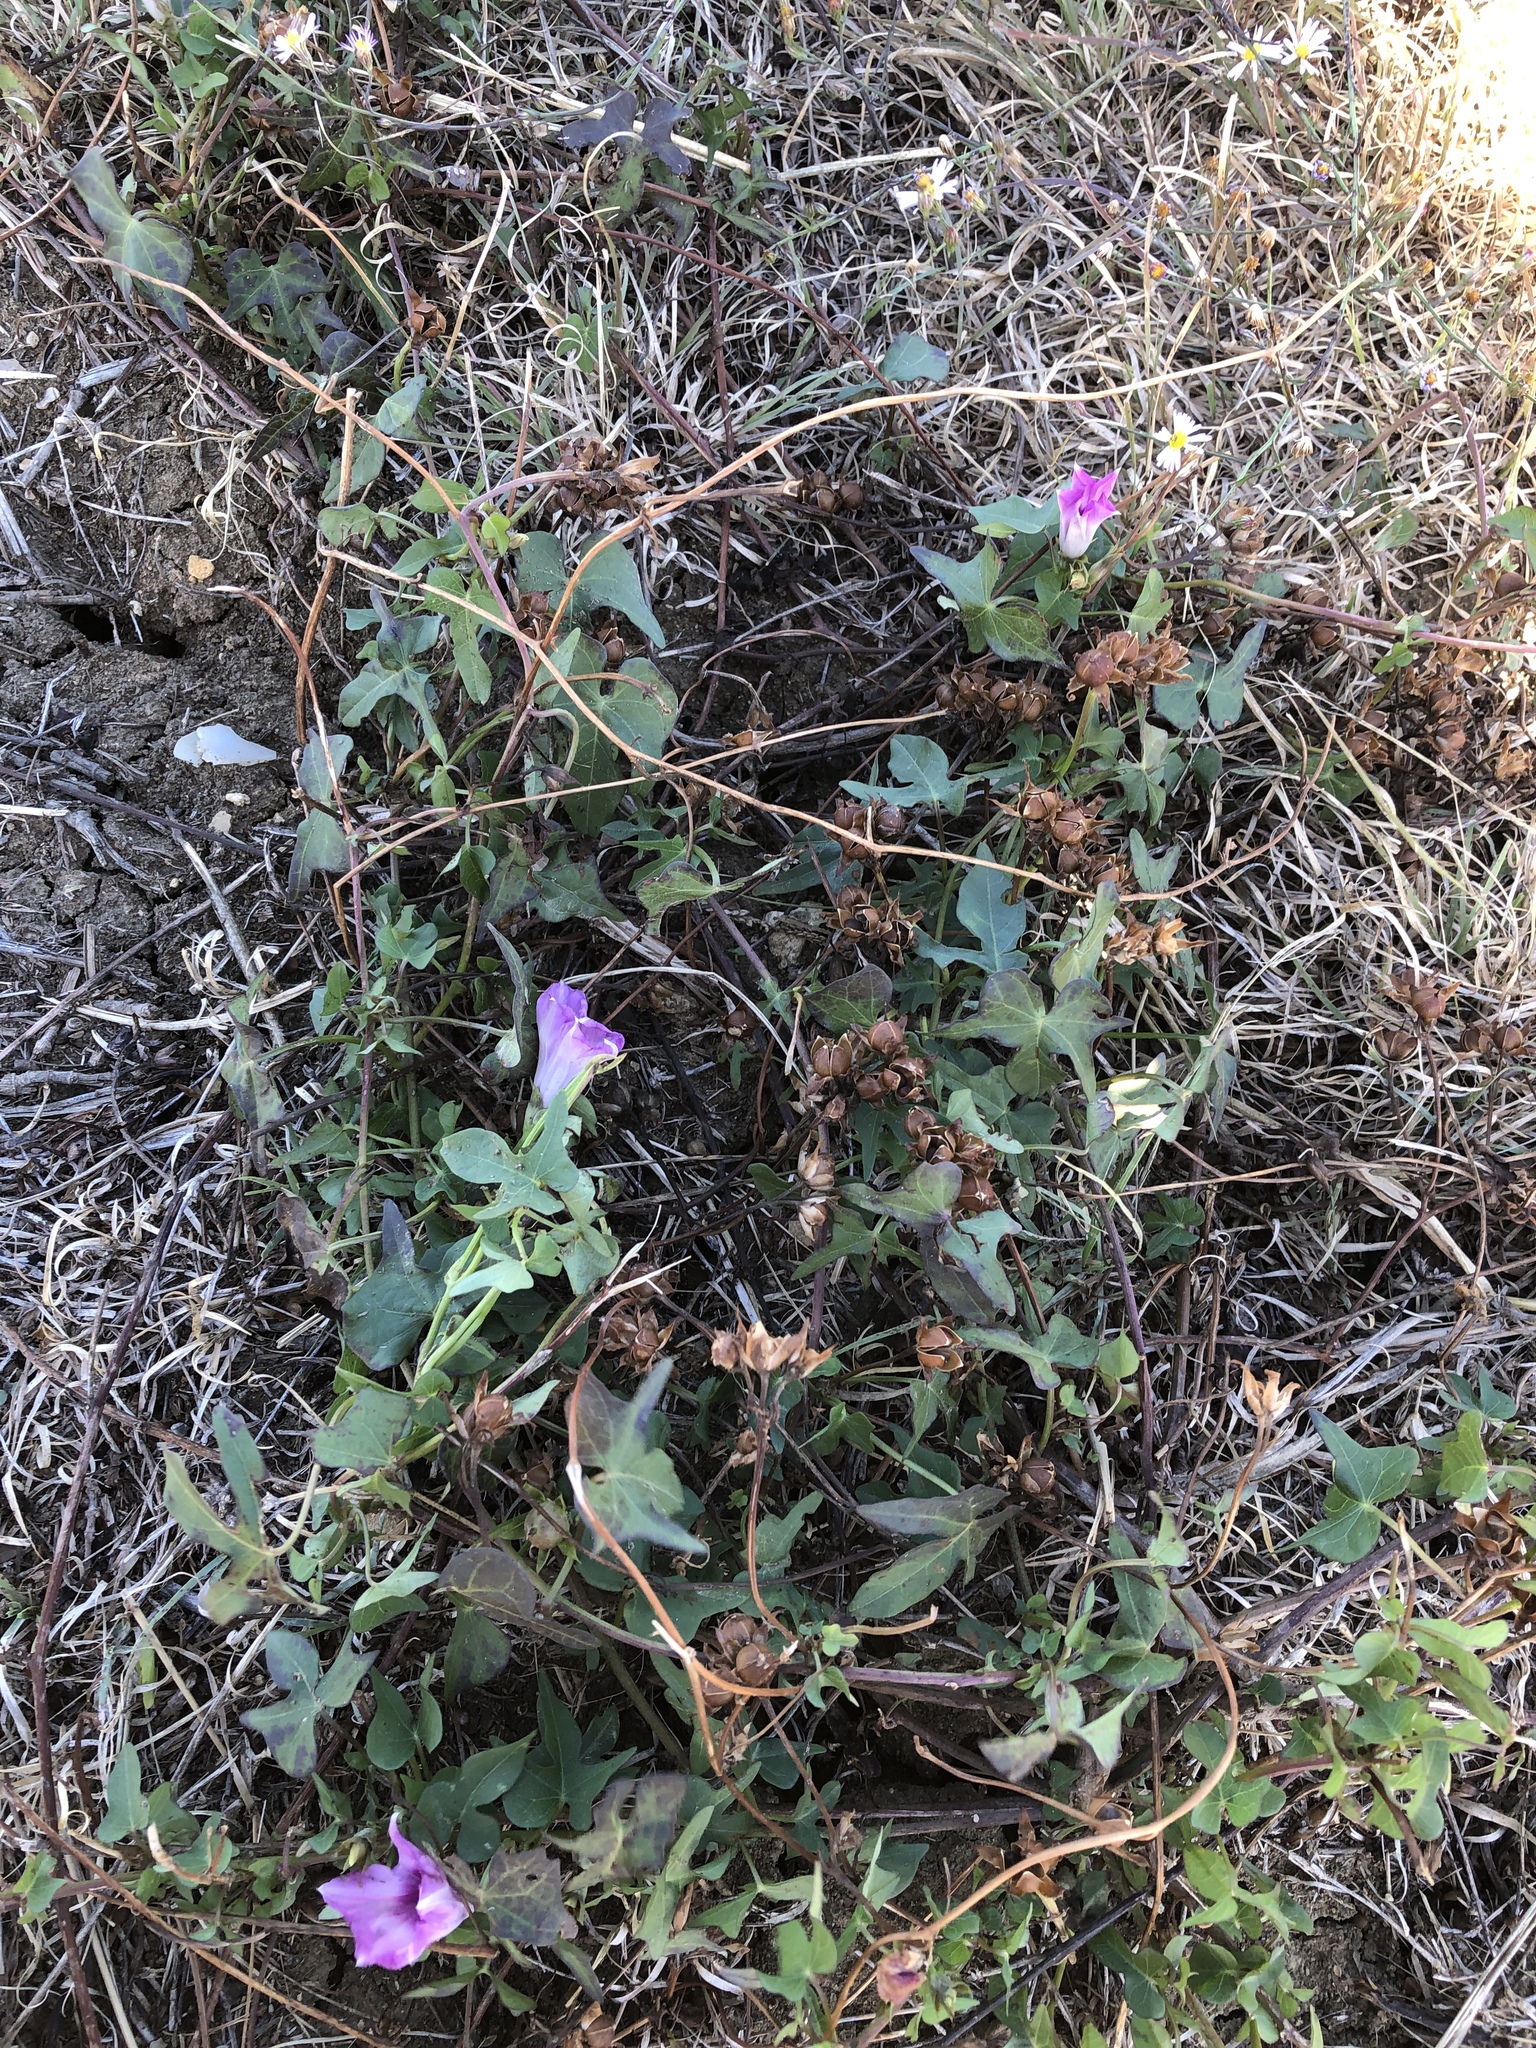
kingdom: Plantae
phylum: Tracheophyta
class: Magnoliopsida
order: Solanales
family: Convolvulaceae
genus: Ipomoea
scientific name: Ipomoea cordatotriloba
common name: Cotton morning glory
